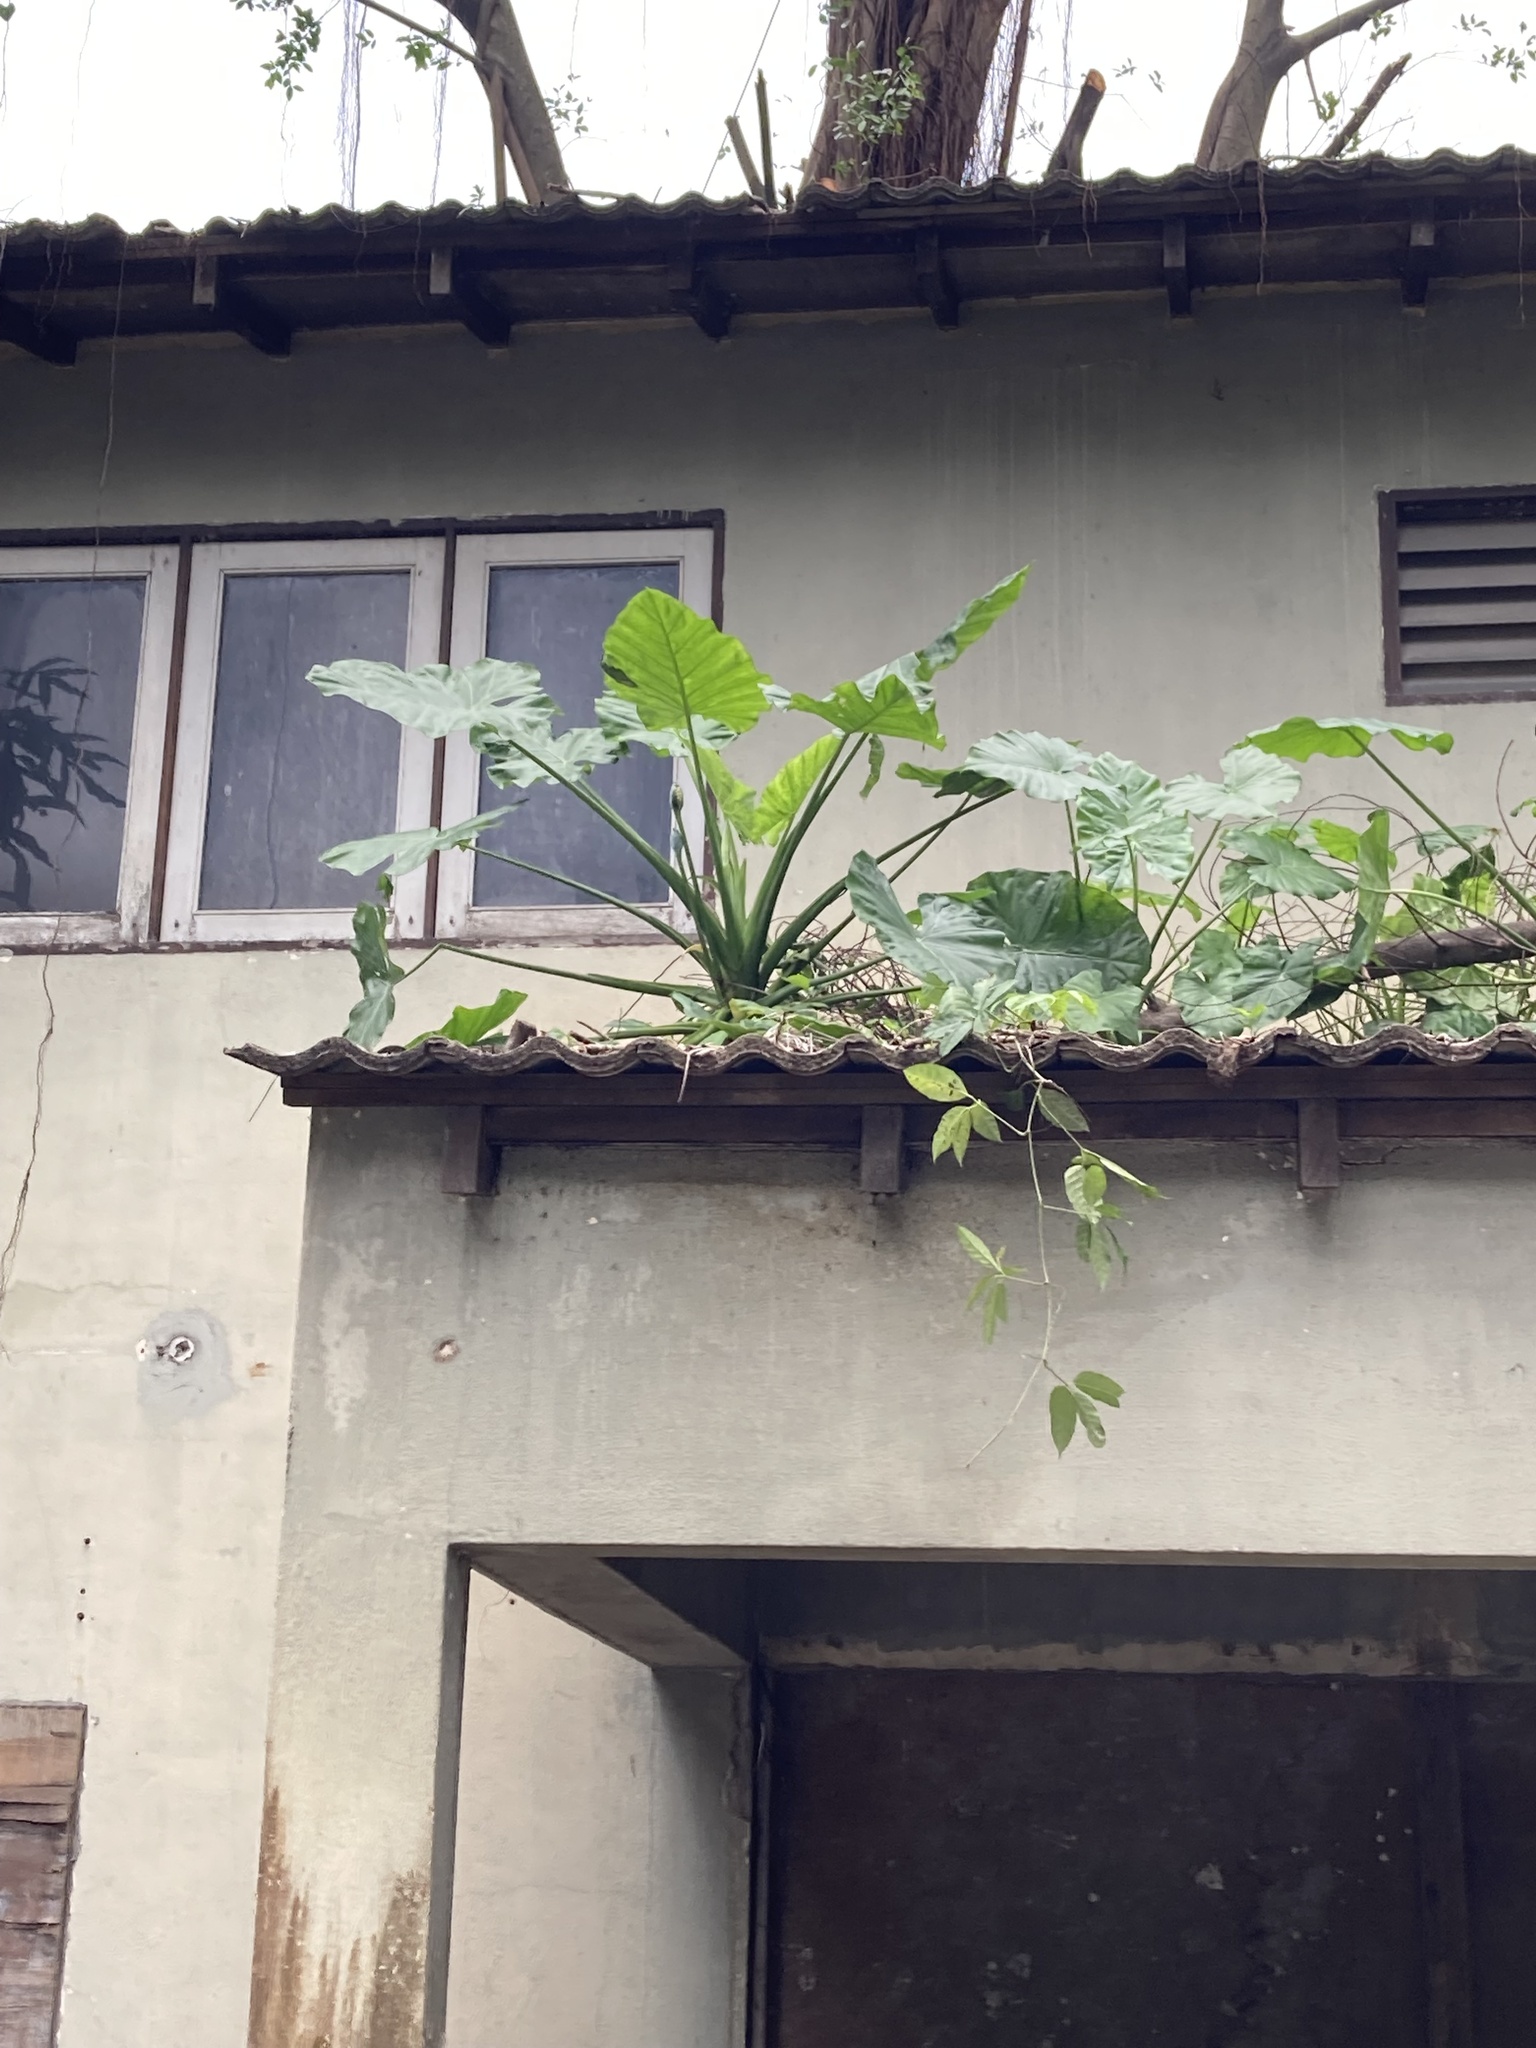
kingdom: Plantae
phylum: Tracheophyta
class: Liliopsida
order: Alismatales
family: Araceae
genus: Alocasia
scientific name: Alocasia odora
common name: Asian taro
